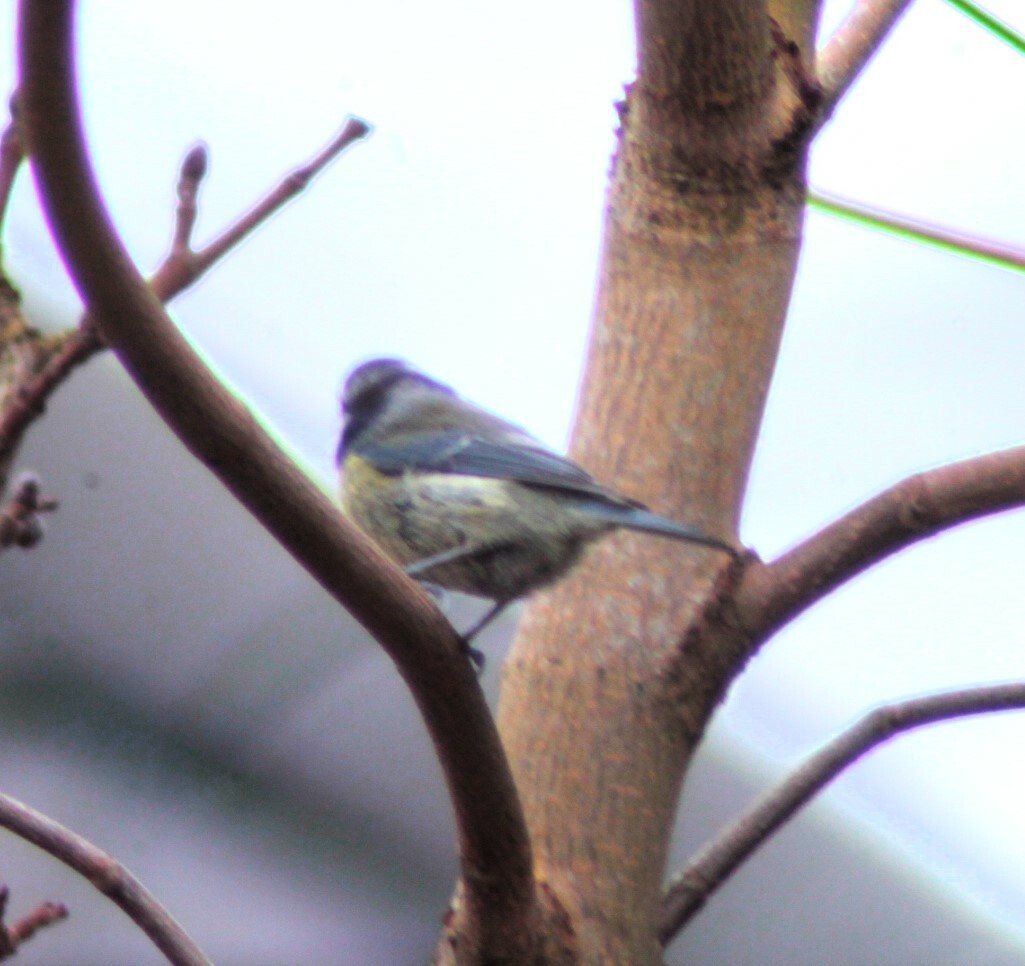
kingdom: Animalia
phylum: Chordata
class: Aves
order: Passeriformes
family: Paridae
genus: Cyanistes
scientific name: Cyanistes caeruleus
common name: Eurasian blue tit
